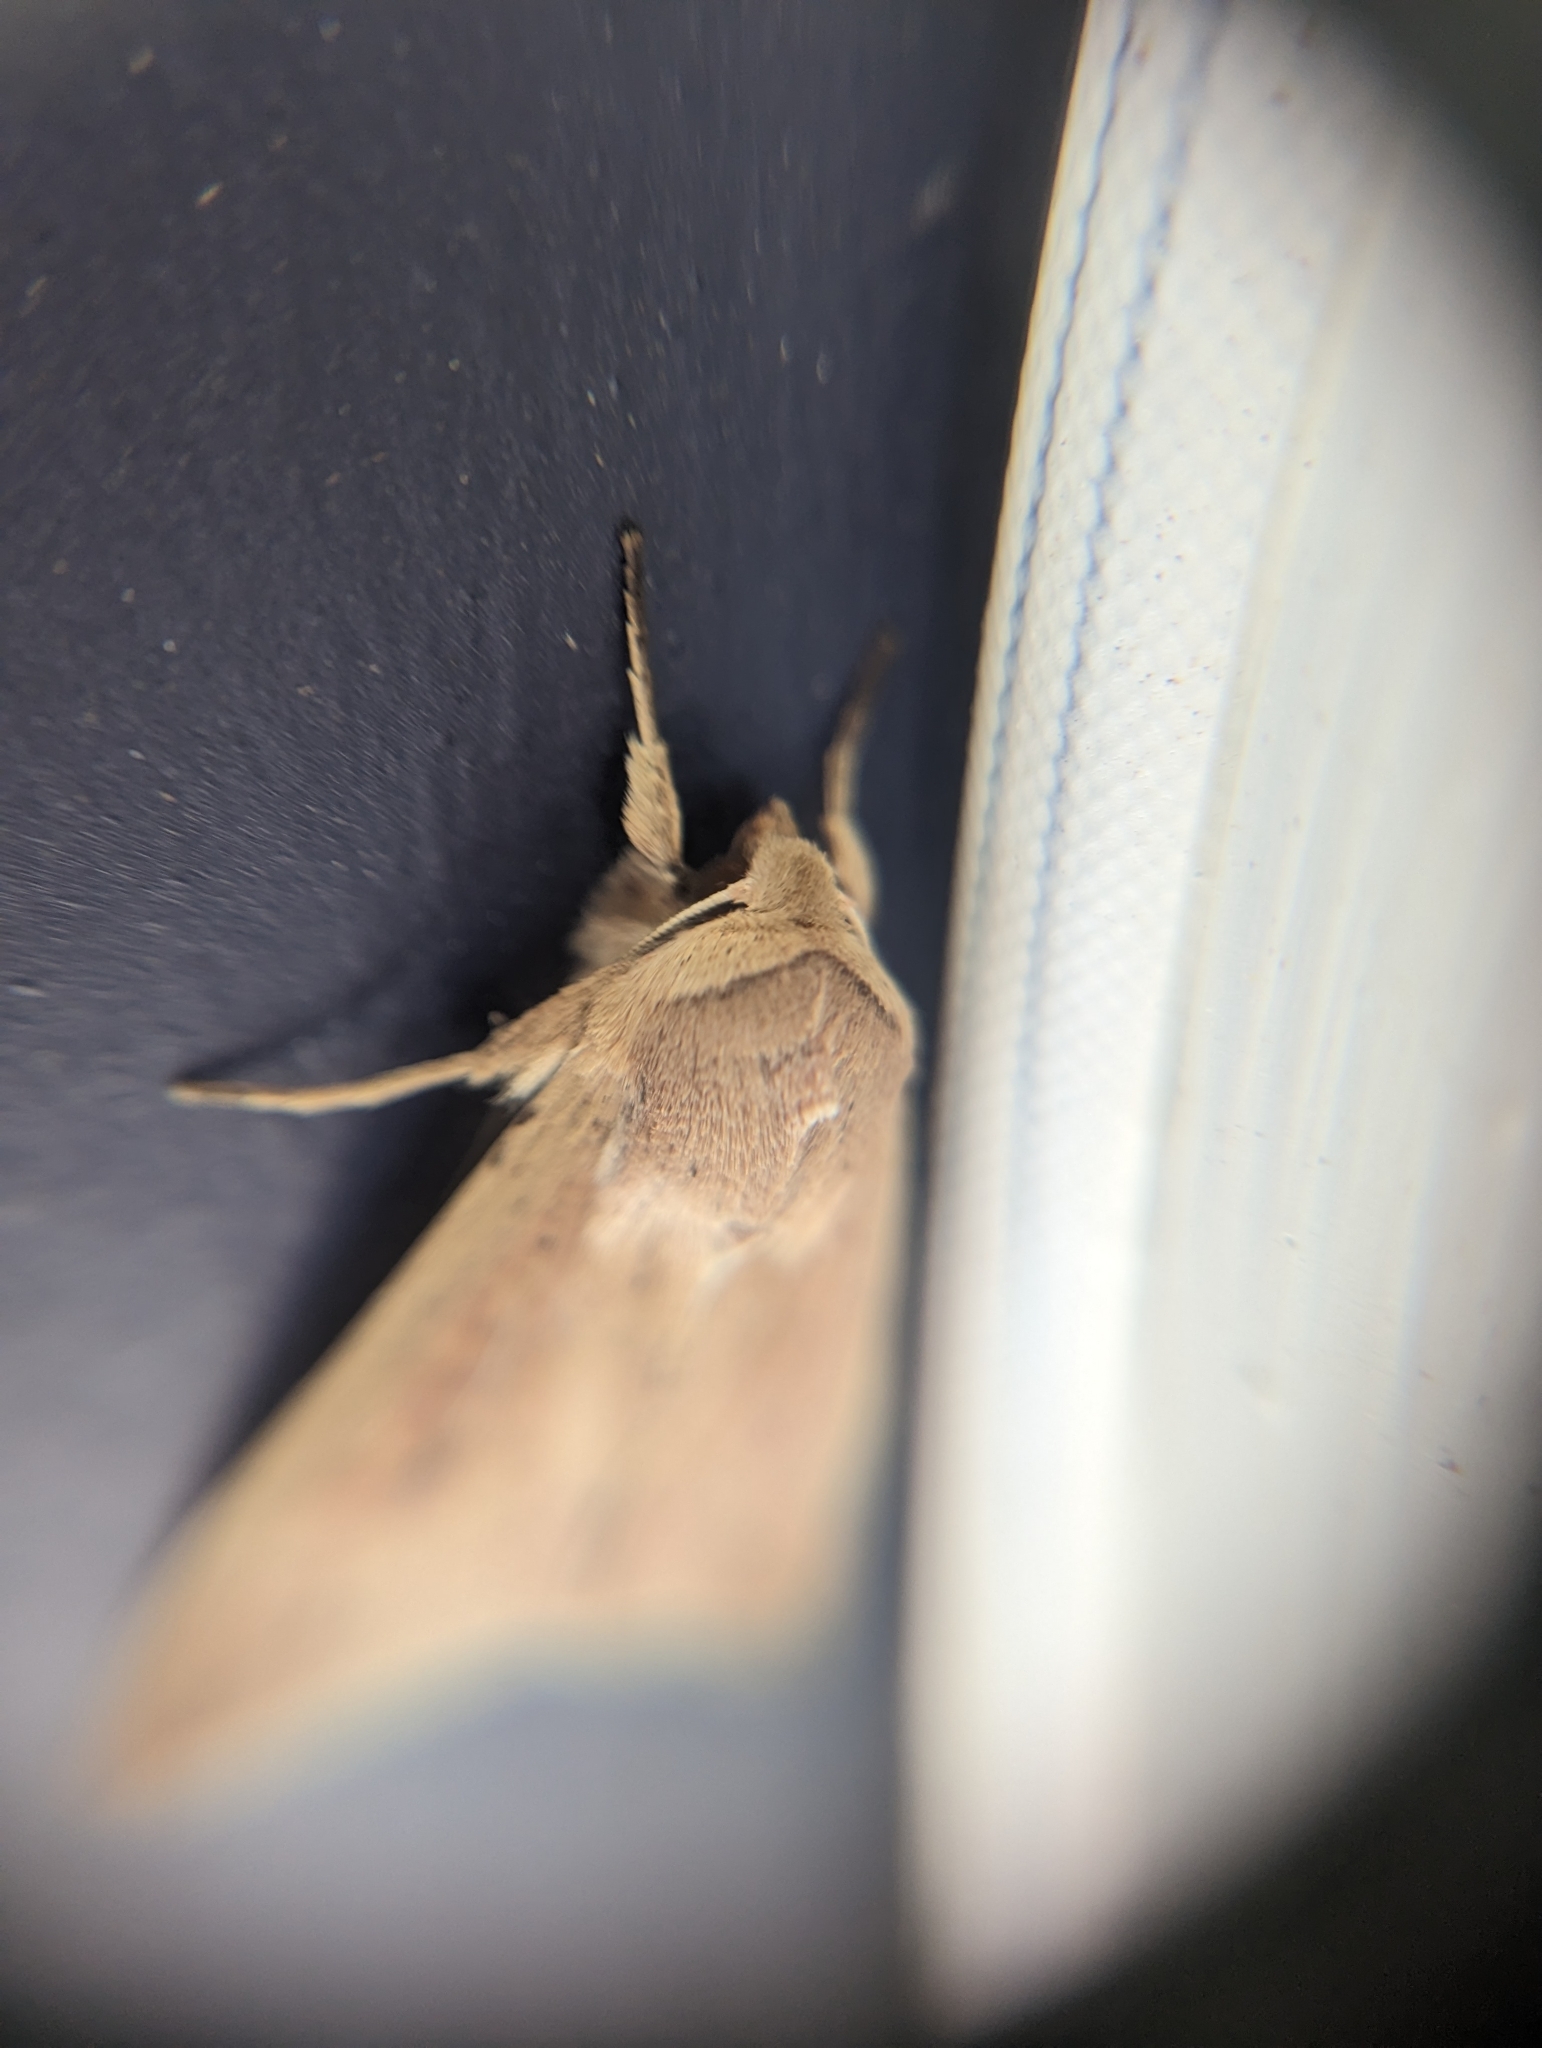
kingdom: Animalia
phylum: Arthropoda
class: Insecta
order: Lepidoptera
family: Noctuidae
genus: Mythimna
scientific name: Mythimna unipuncta
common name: White-speck
